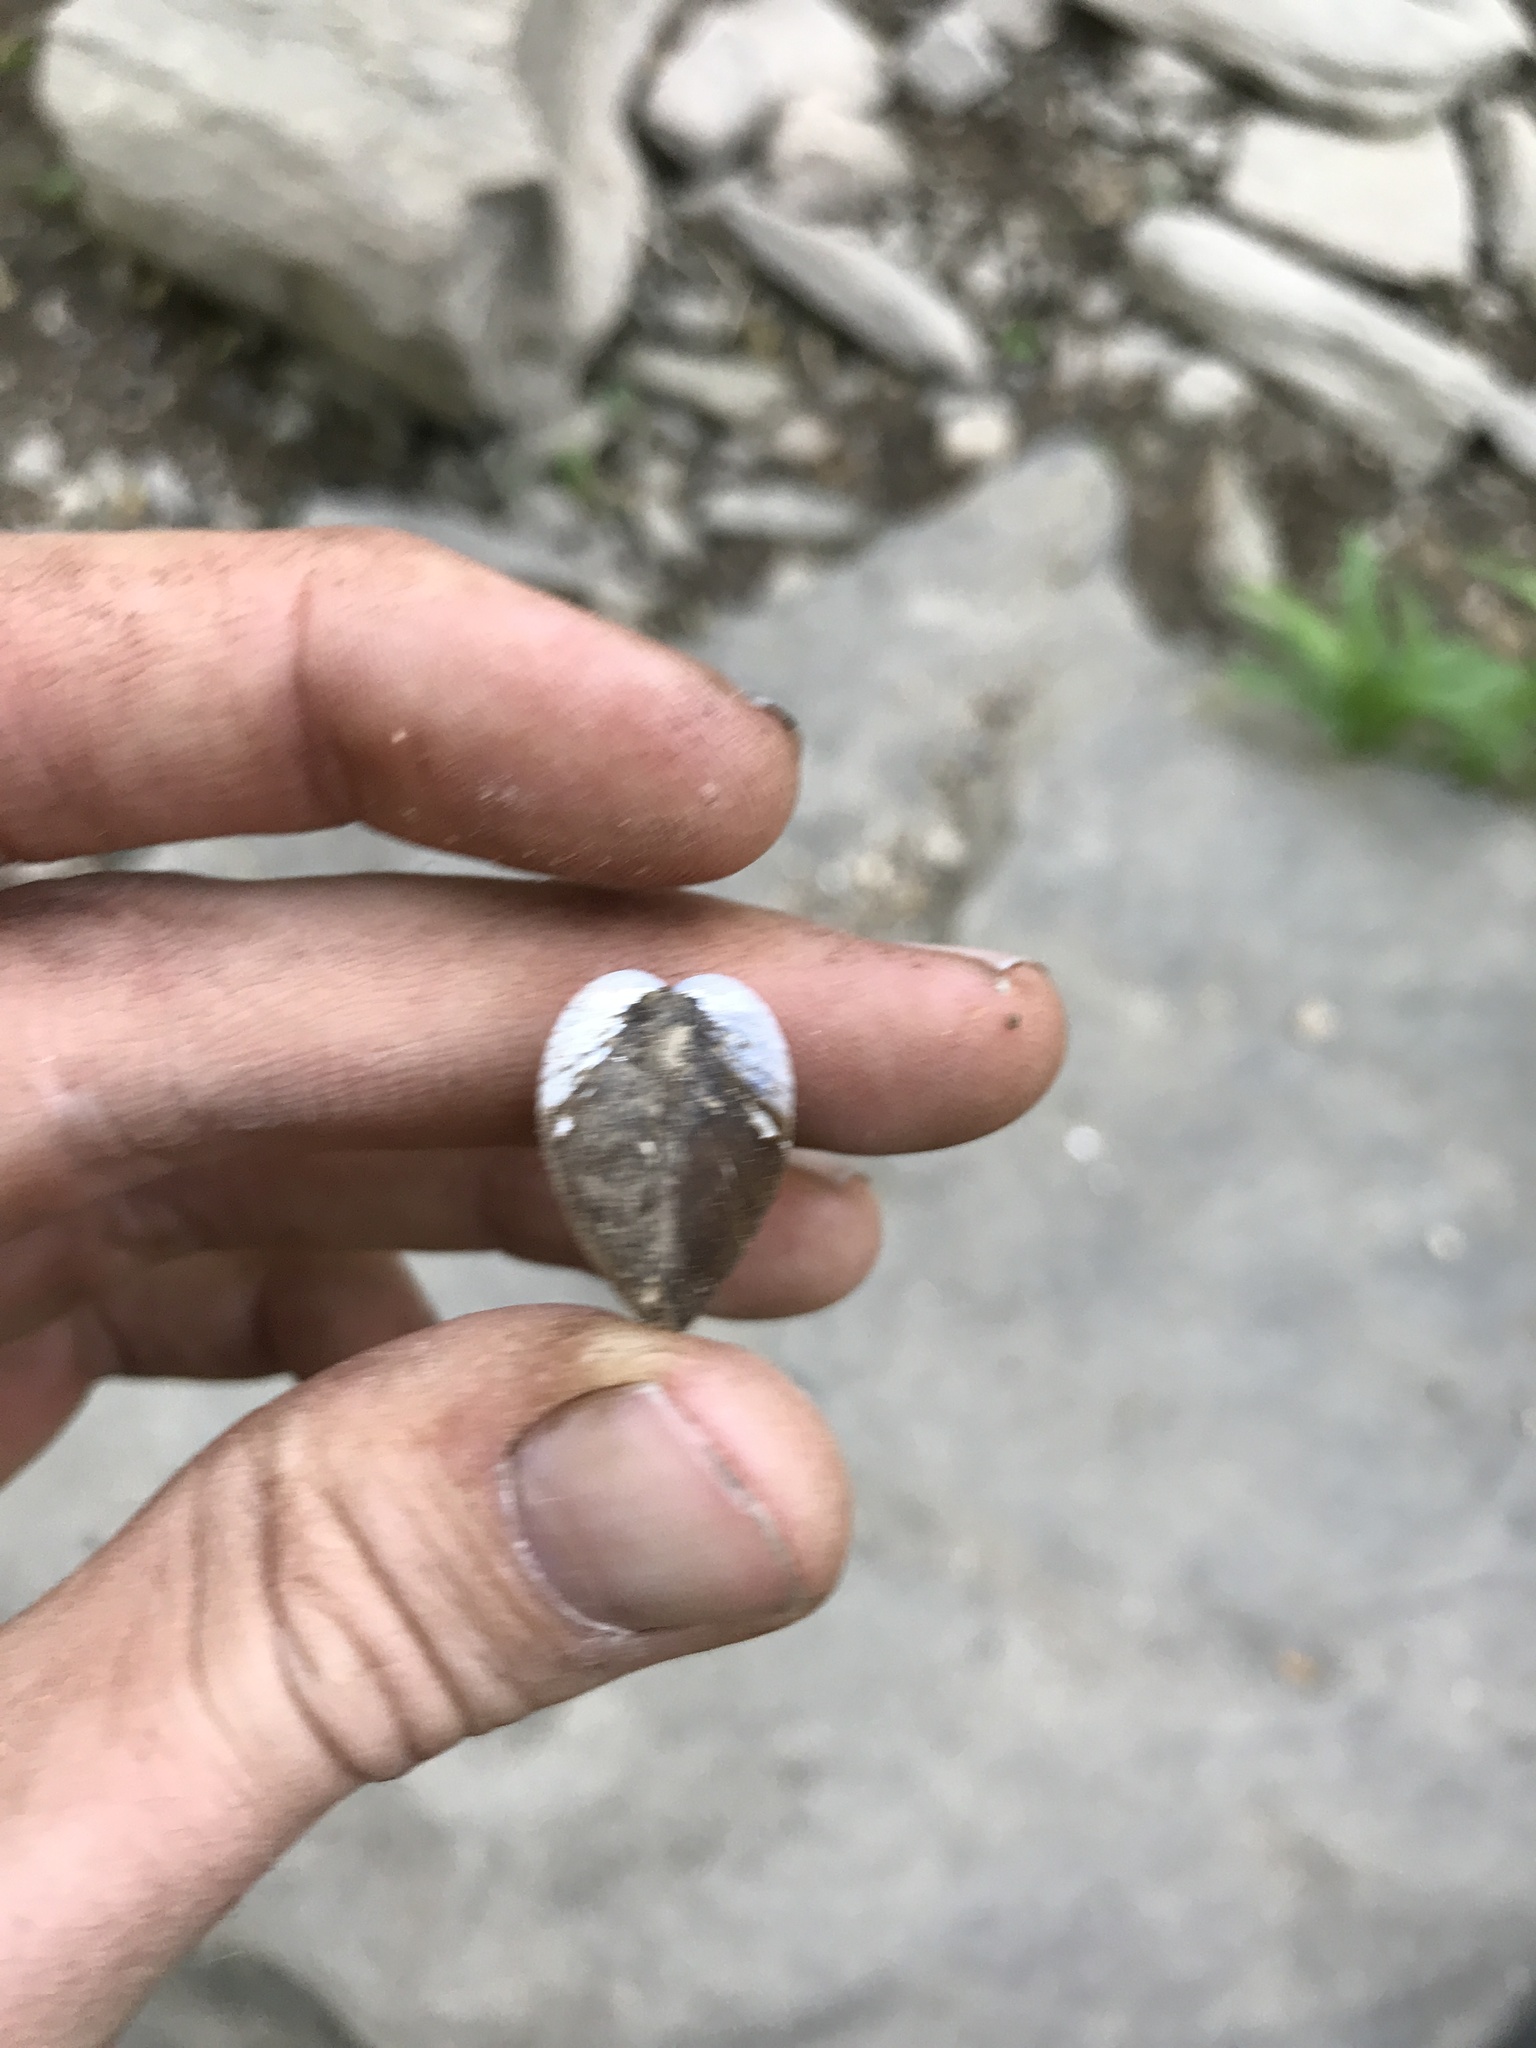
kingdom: Animalia
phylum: Mollusca
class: Bivalvia
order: Venerida
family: Cyrenidae
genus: Corbicula
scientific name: Corbicula fluminea
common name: Asian clam
